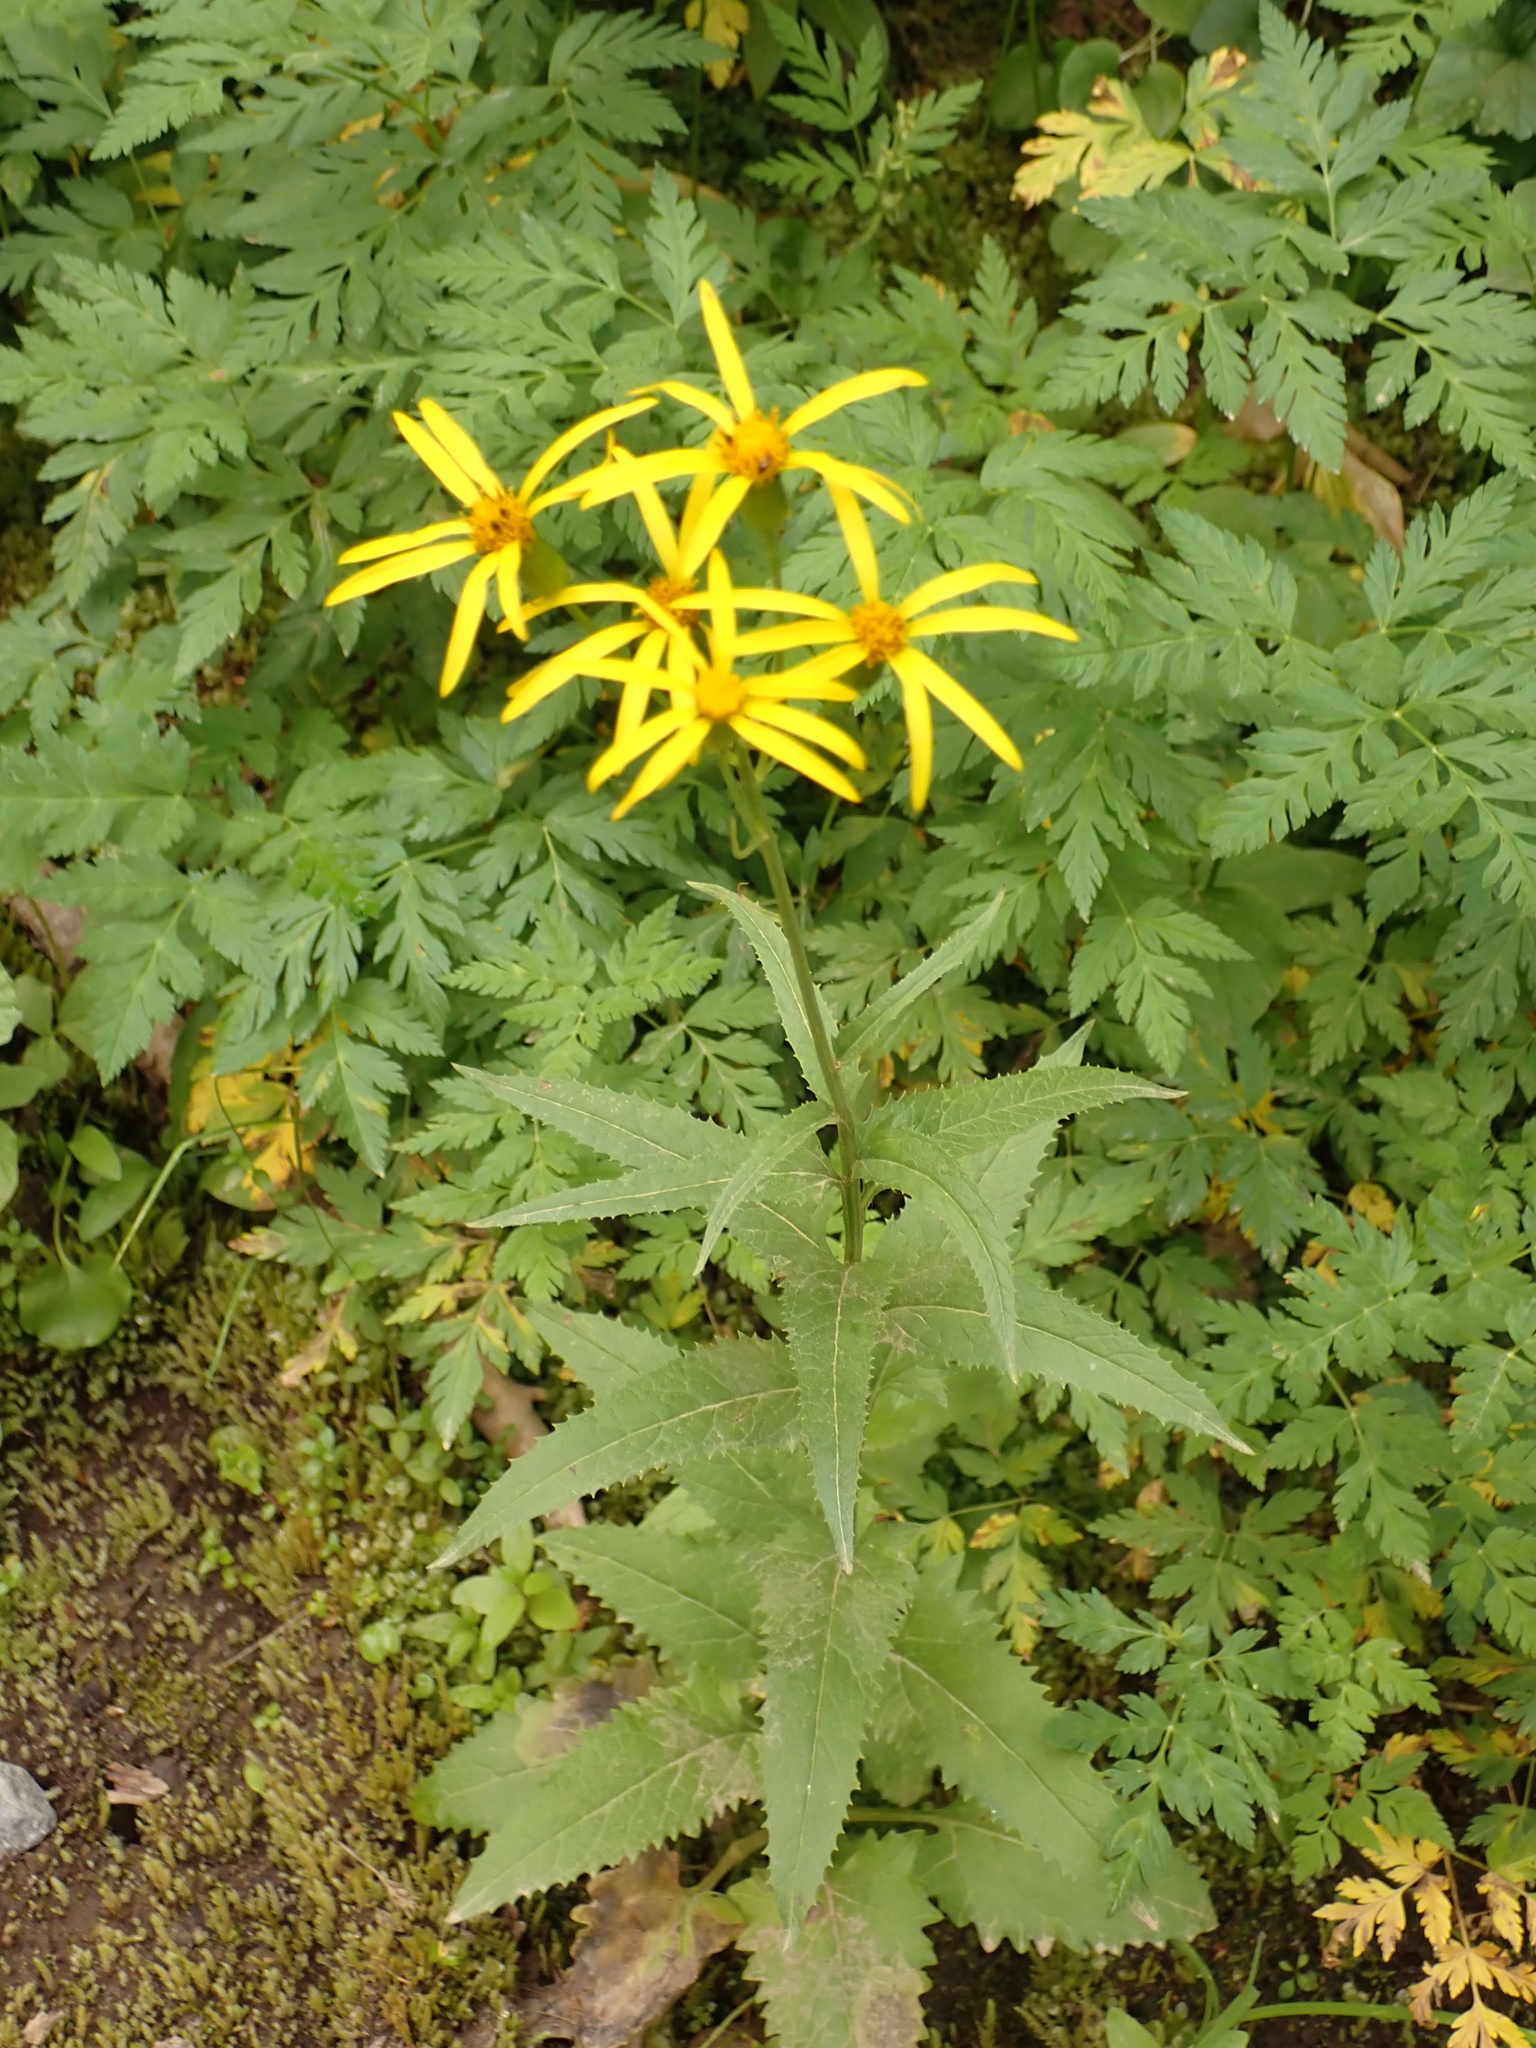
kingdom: Plantae
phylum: Tracheophyta
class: Magnoliopsida
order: Asterales
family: Asteraceae
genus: Senecio
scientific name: Senecio triangularis
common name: Arrowleaf butterweed
